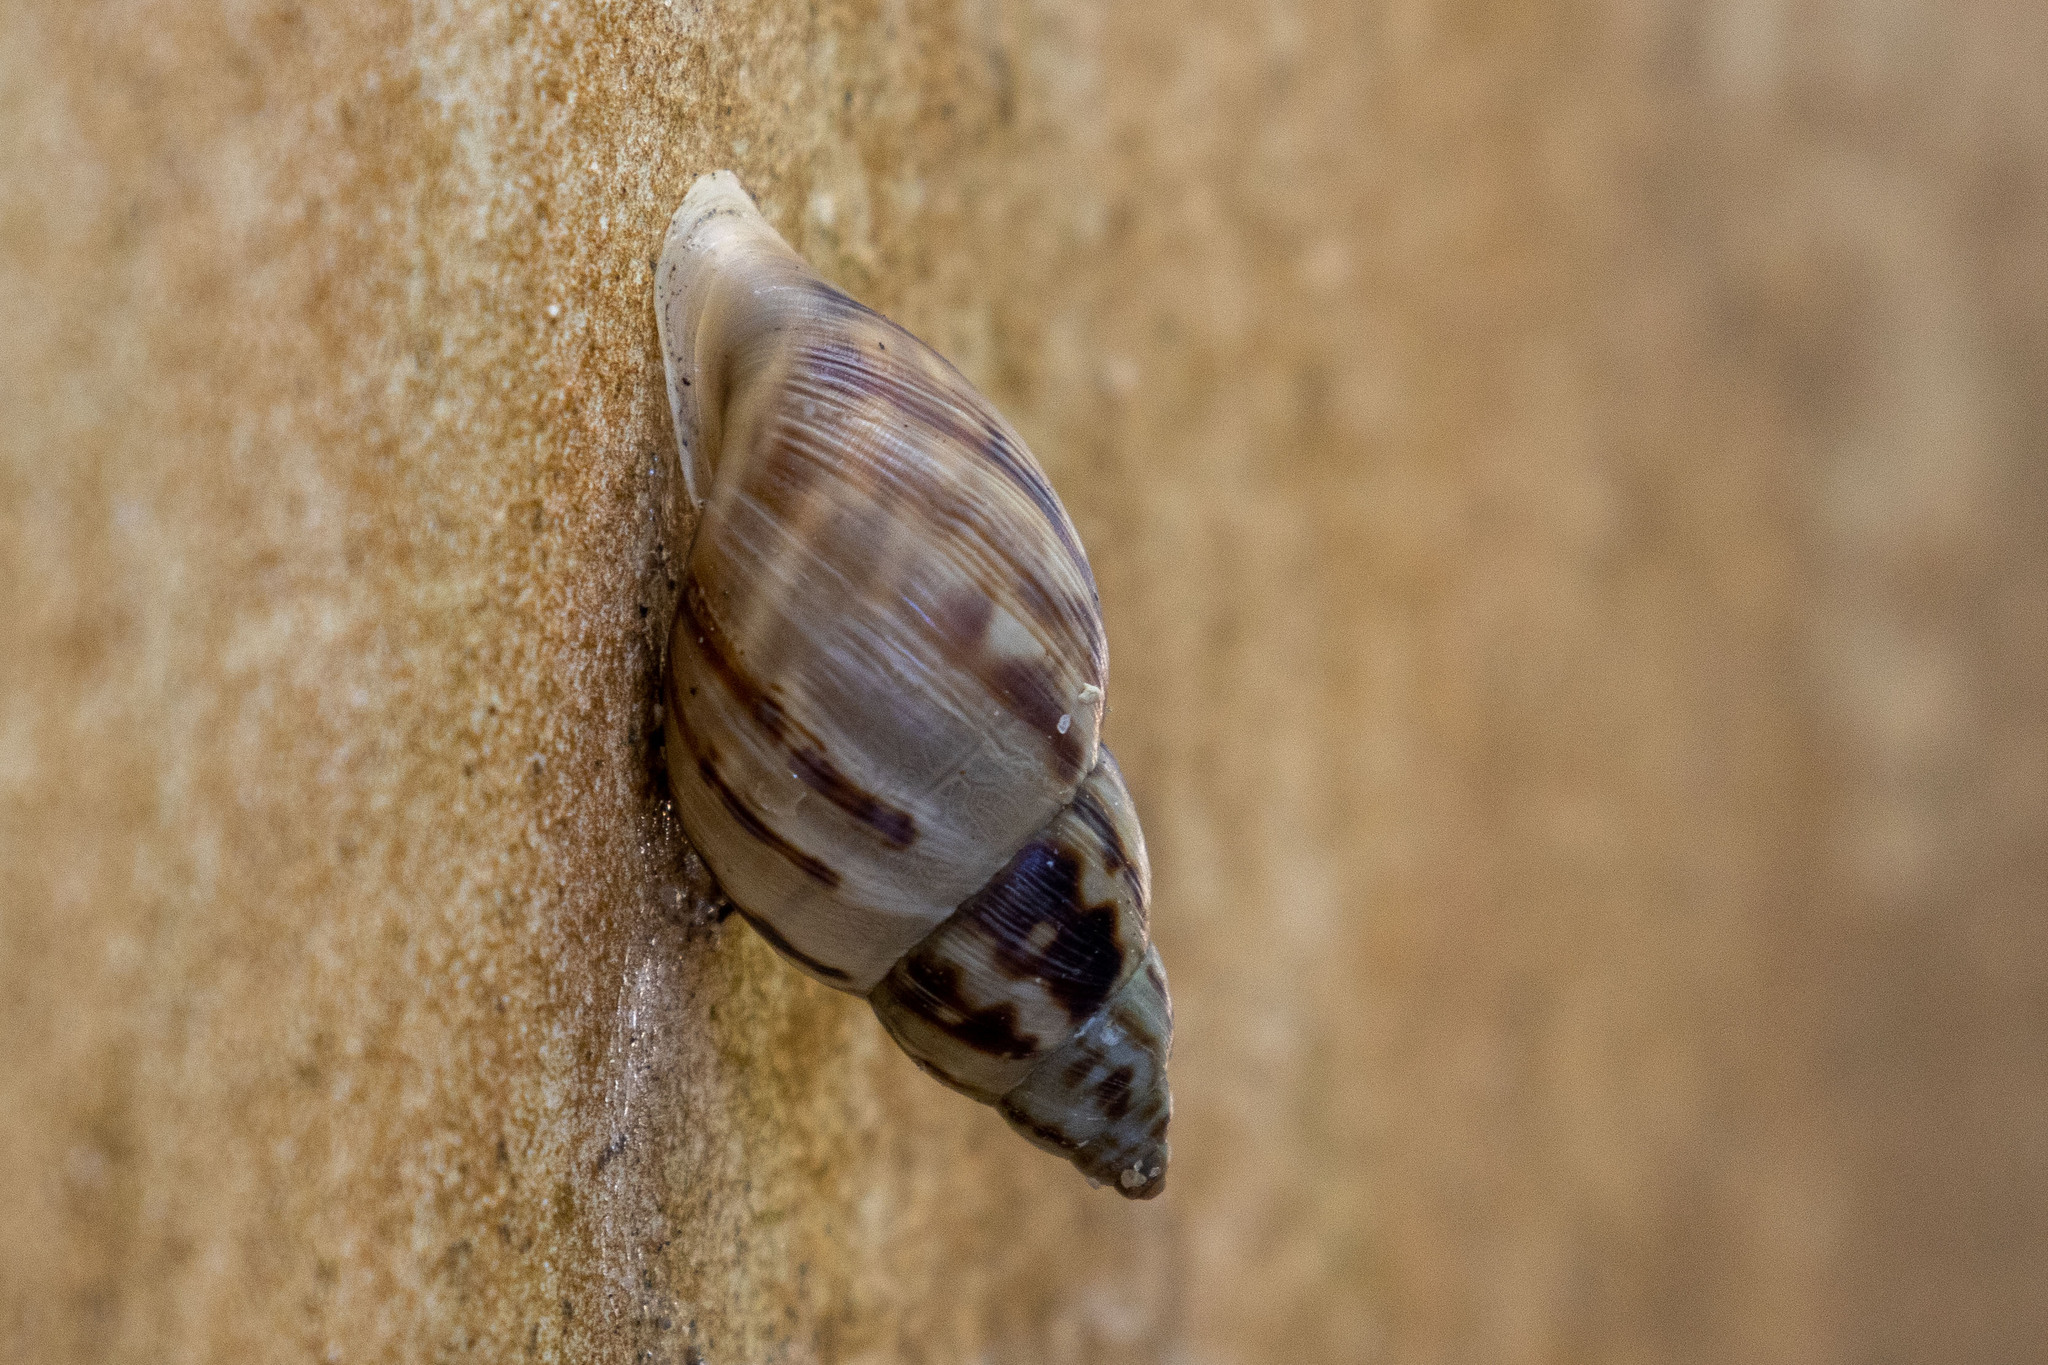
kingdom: Animalia
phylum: Mollusca
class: Gastropoda
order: Stylommatophora
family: Bulimulidae
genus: Drymaeus
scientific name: Drymaeus papyraceus
